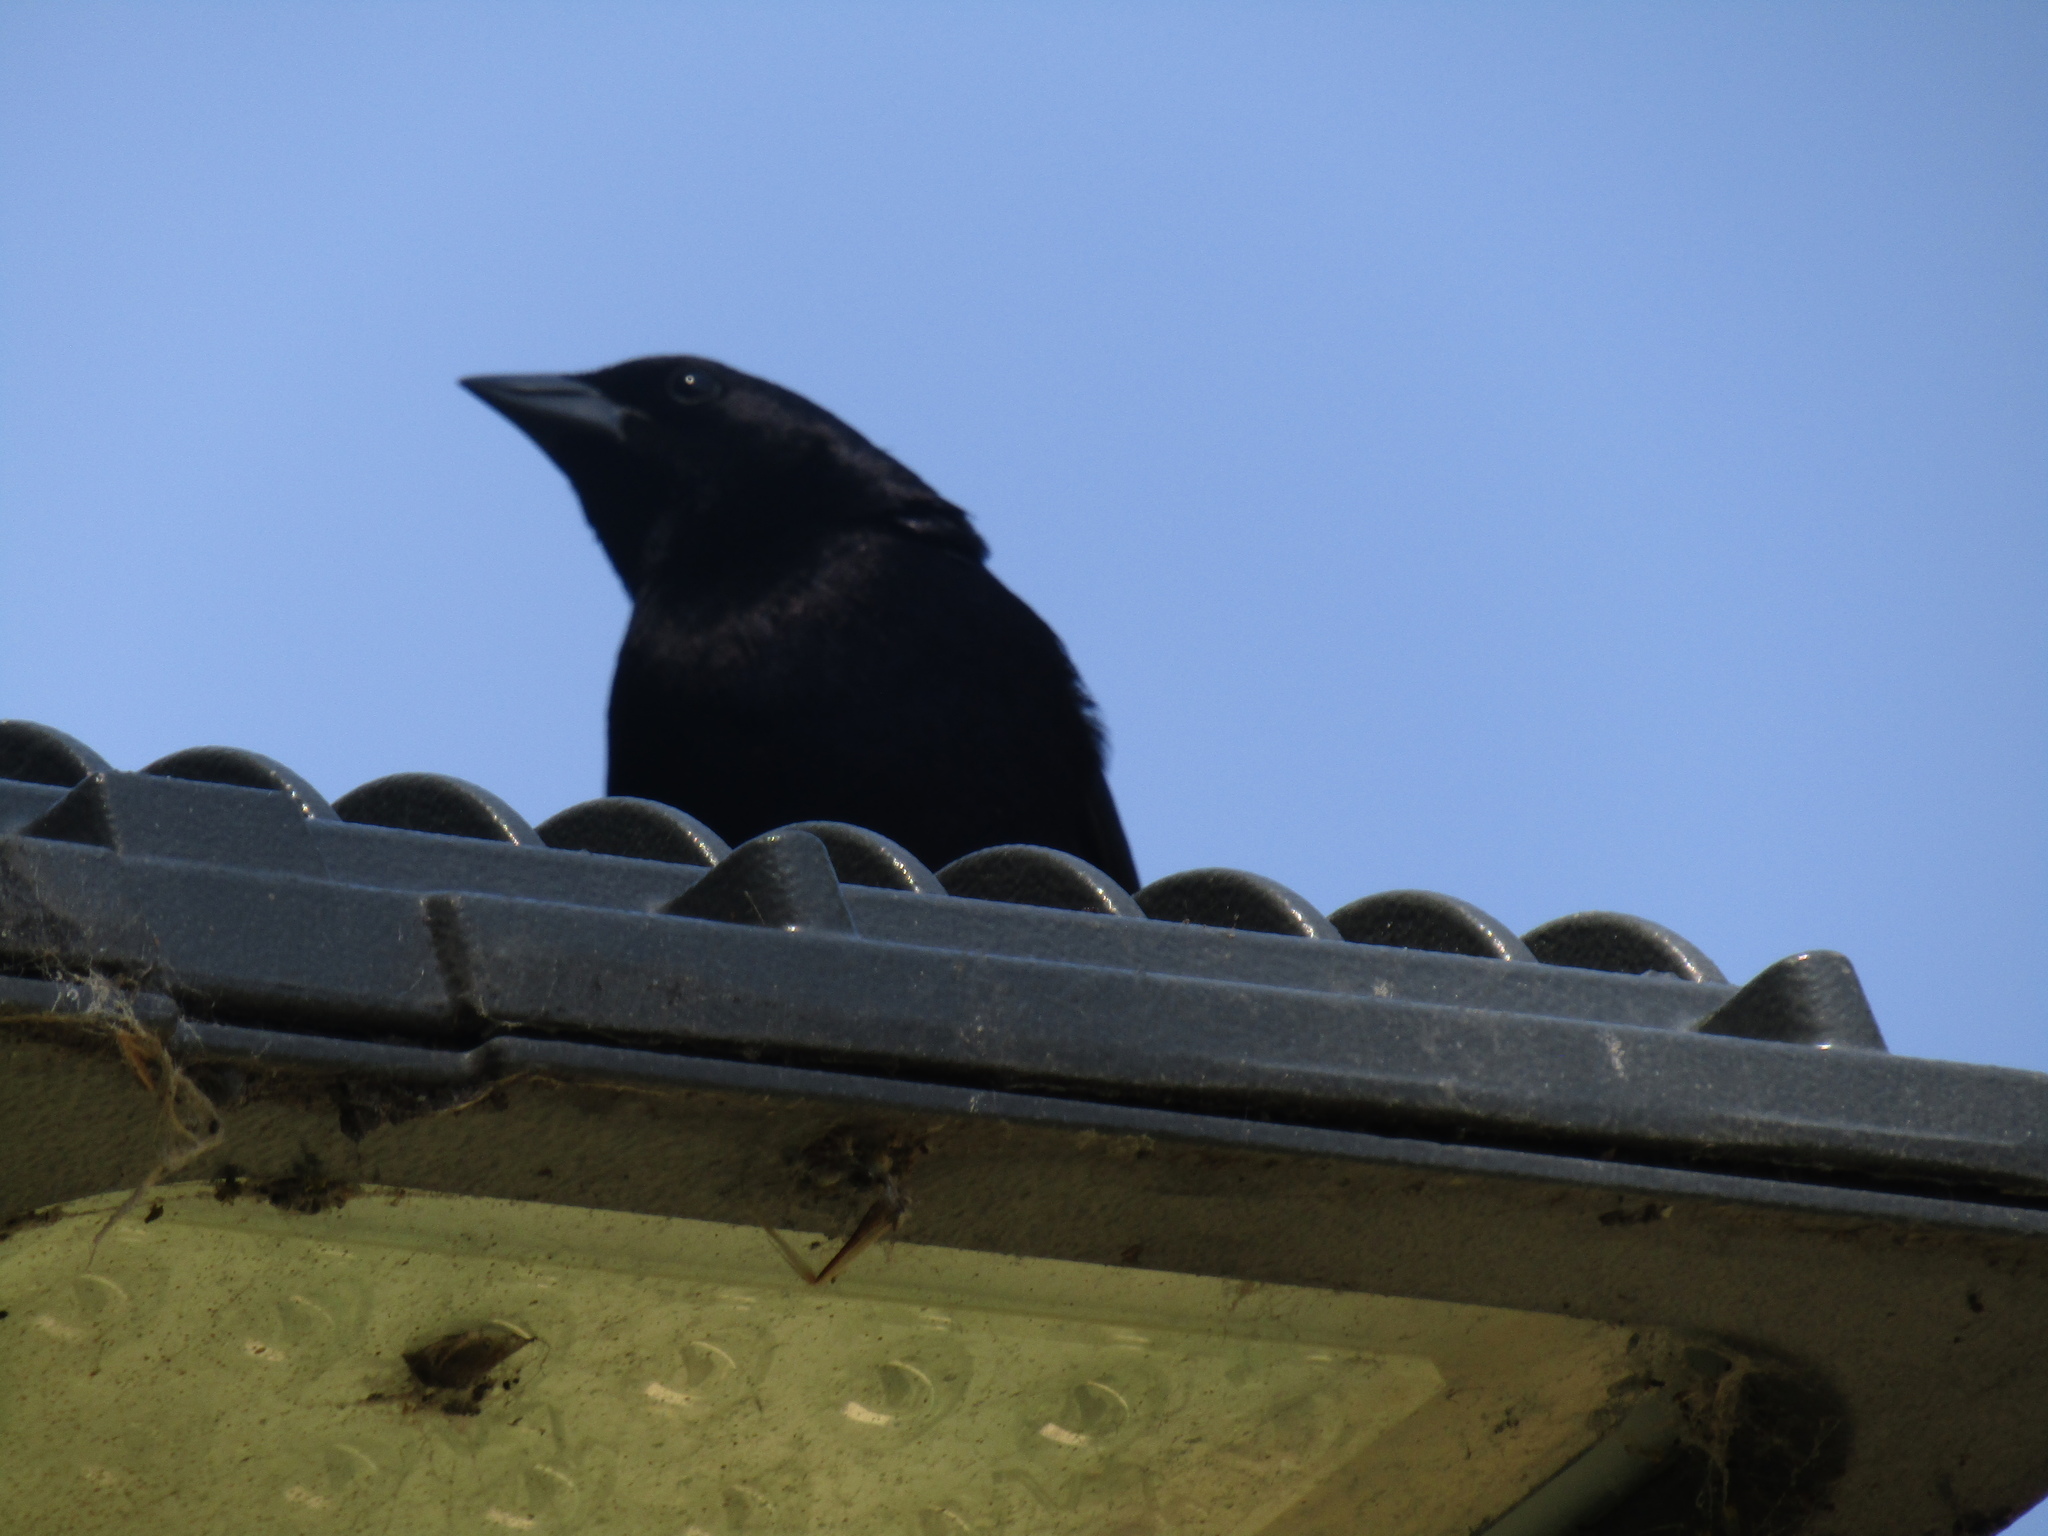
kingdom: Animalia
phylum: Chordata
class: Aves
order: Passeriformes
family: Icteridae
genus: Molothrus
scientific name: Molothrus bonariensis
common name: Shiny cowbird
